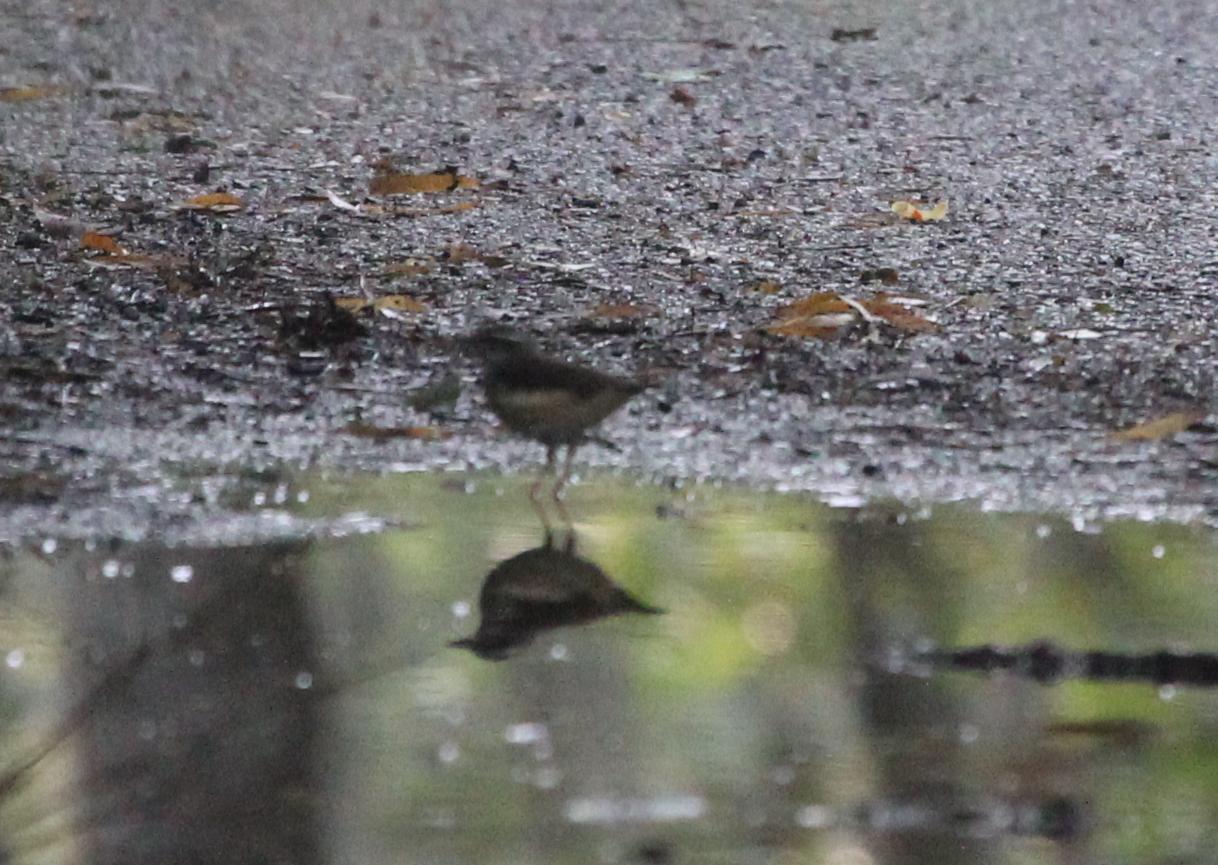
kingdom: Animalia
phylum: Chordata
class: Aves
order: Passeriformes
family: Parulidae
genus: Parkesia
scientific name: Parkesia noveboracensis
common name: Northern waterthrush
